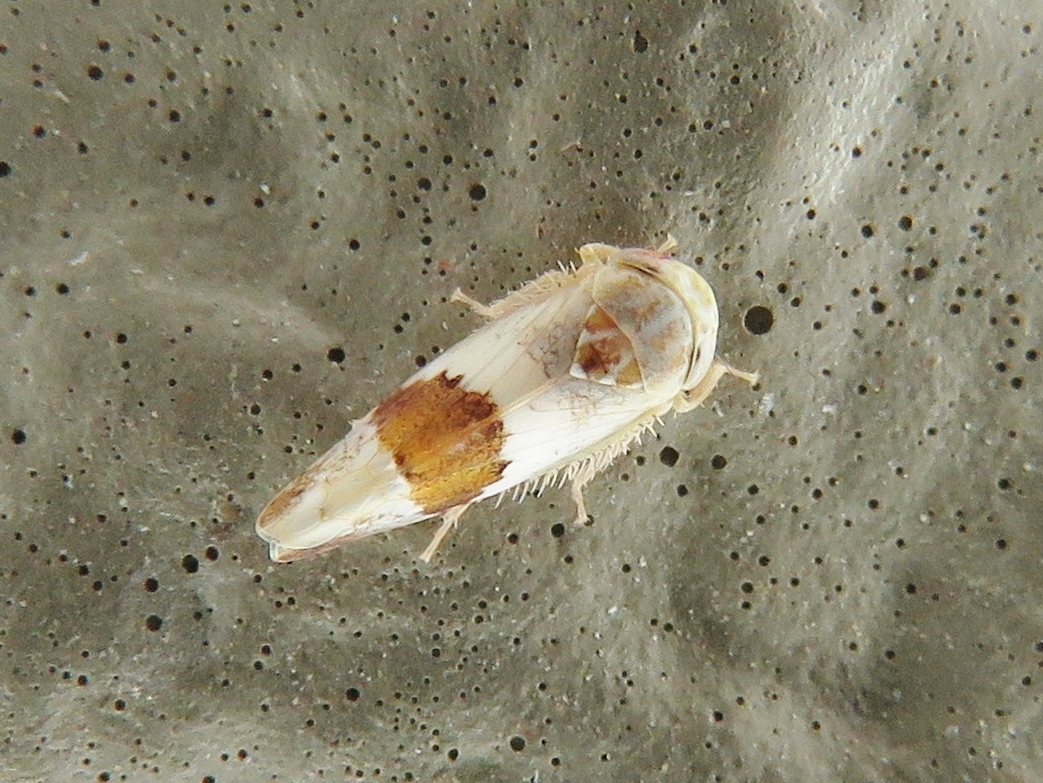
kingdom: Animalia
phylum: Arthropoda
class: Insecta
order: Hemiptera
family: Cicadellidae
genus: Norvellina
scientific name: Norvellina seminuda
